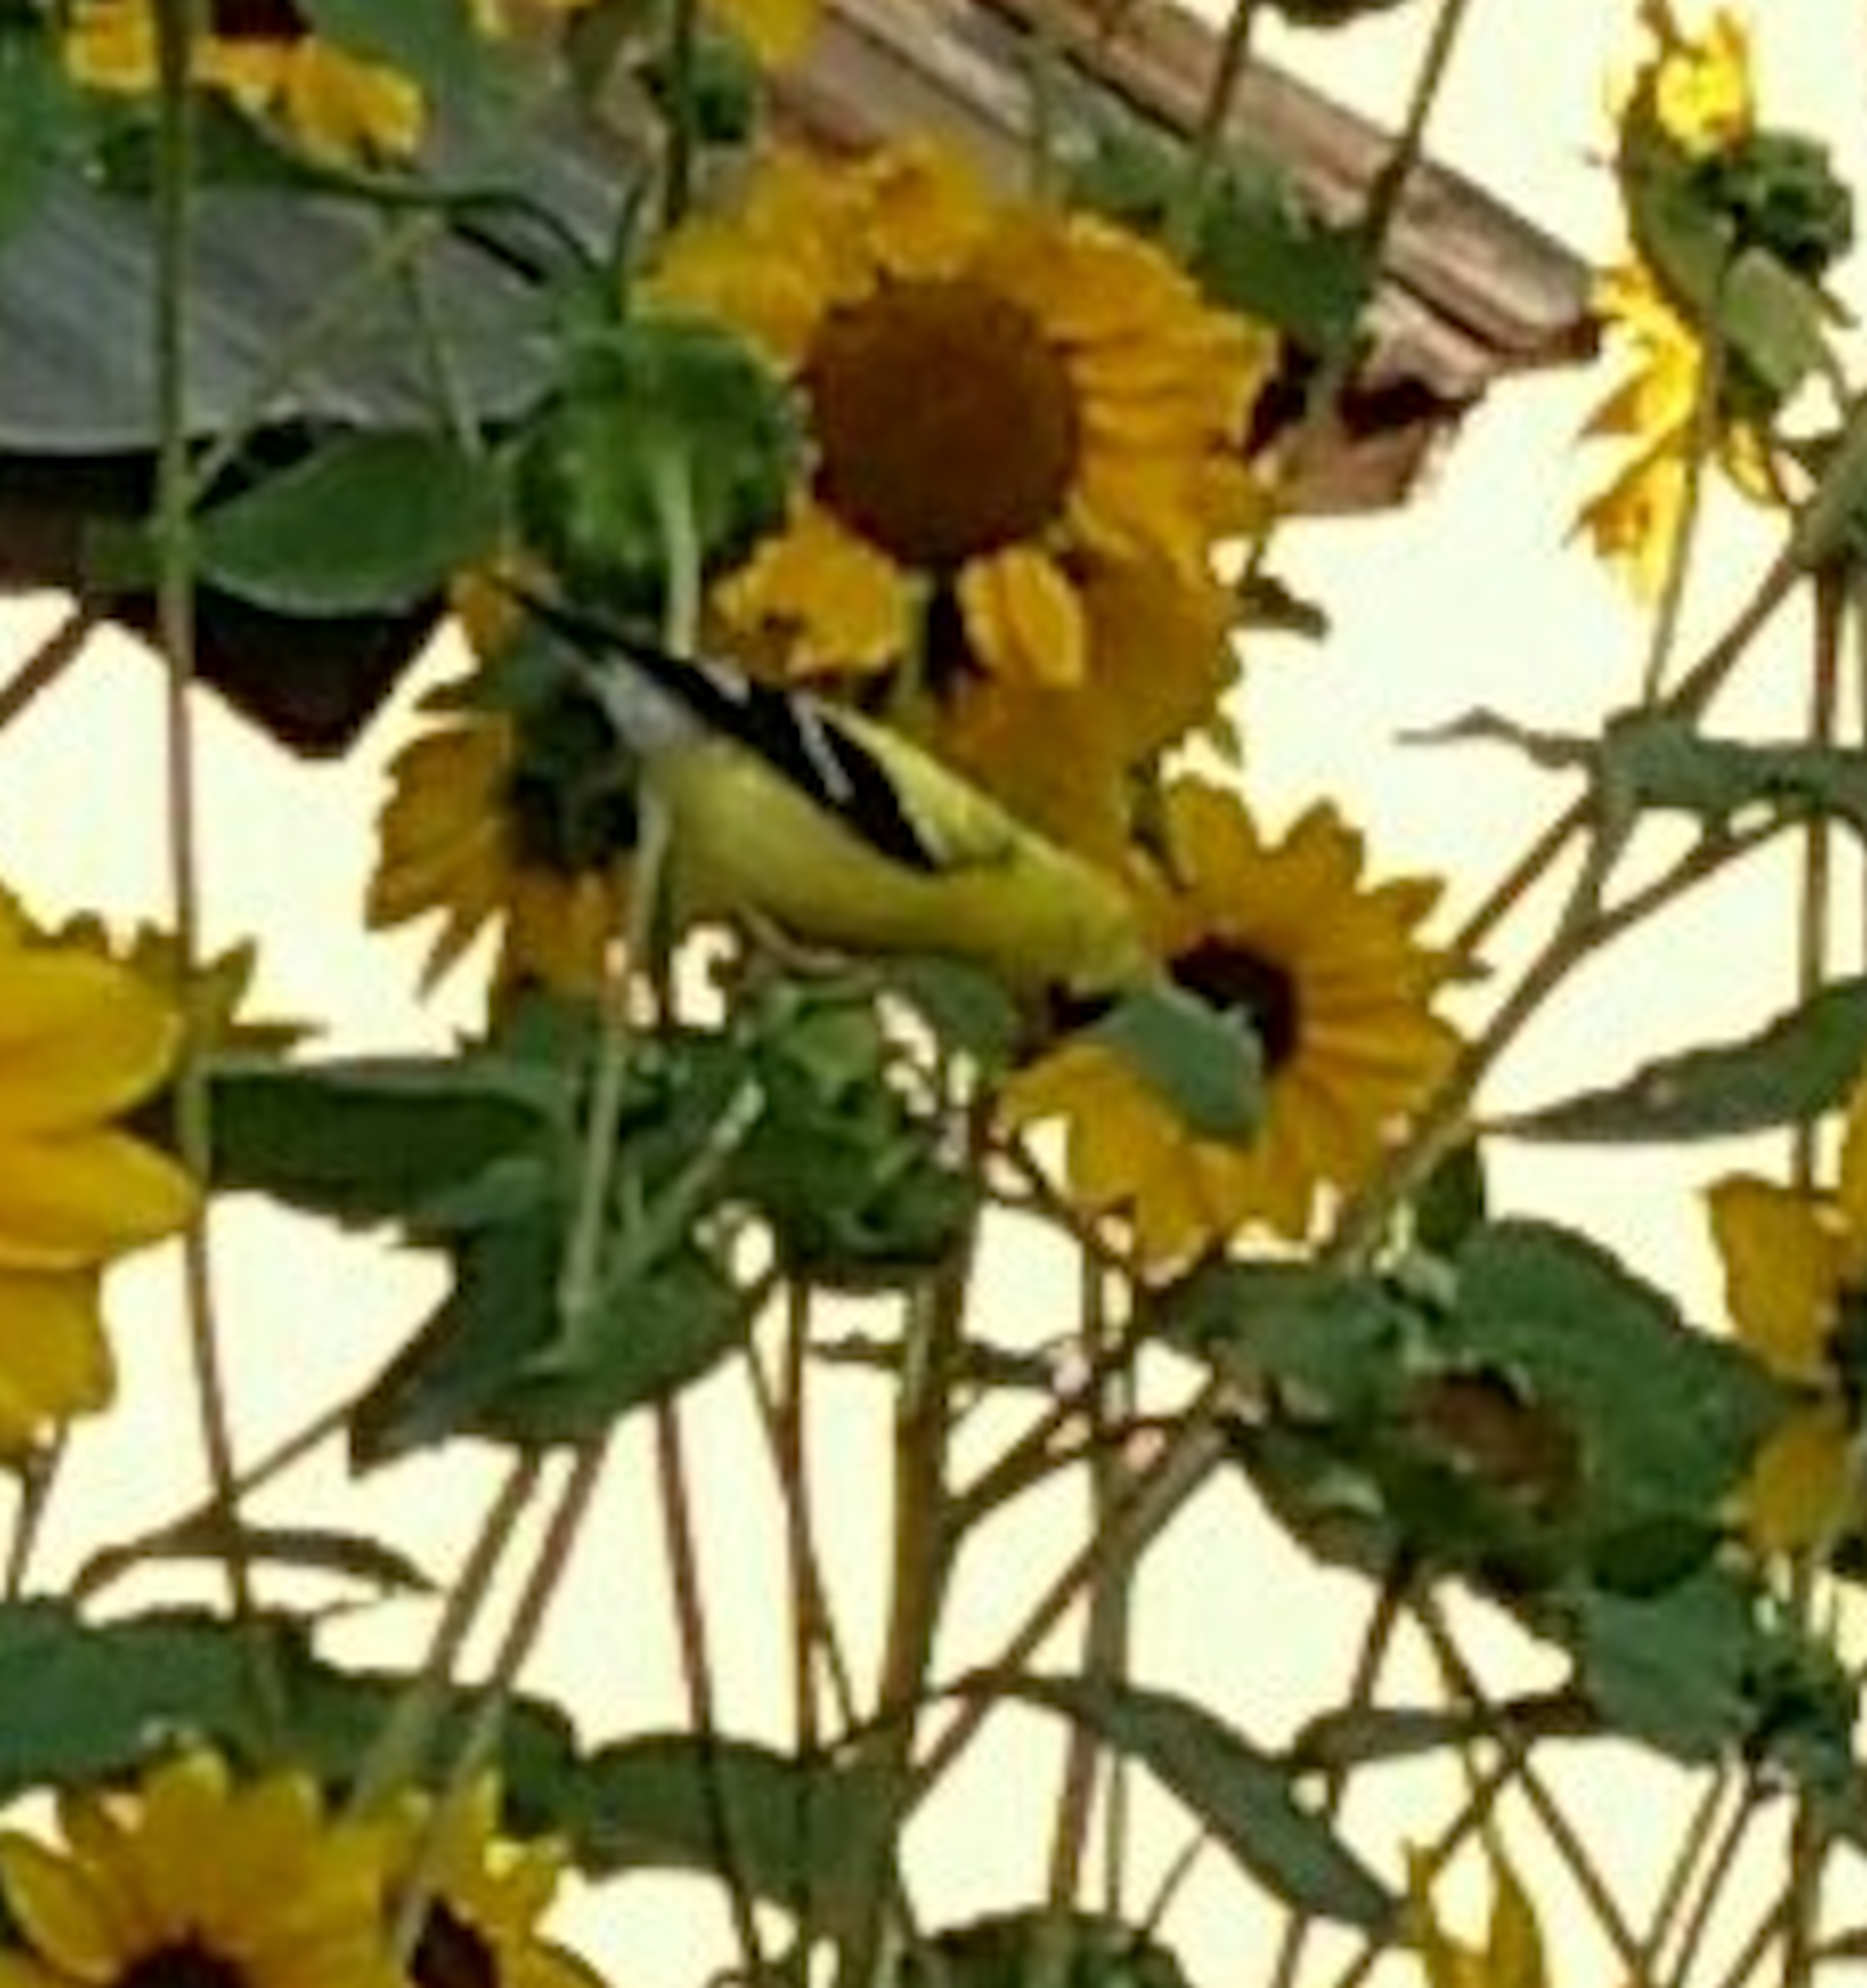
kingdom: Animalia
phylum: Chordata
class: Aves
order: Passeriformes
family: Fringillidae
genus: Spinus
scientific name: Spinus tristis
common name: American goldfinch
